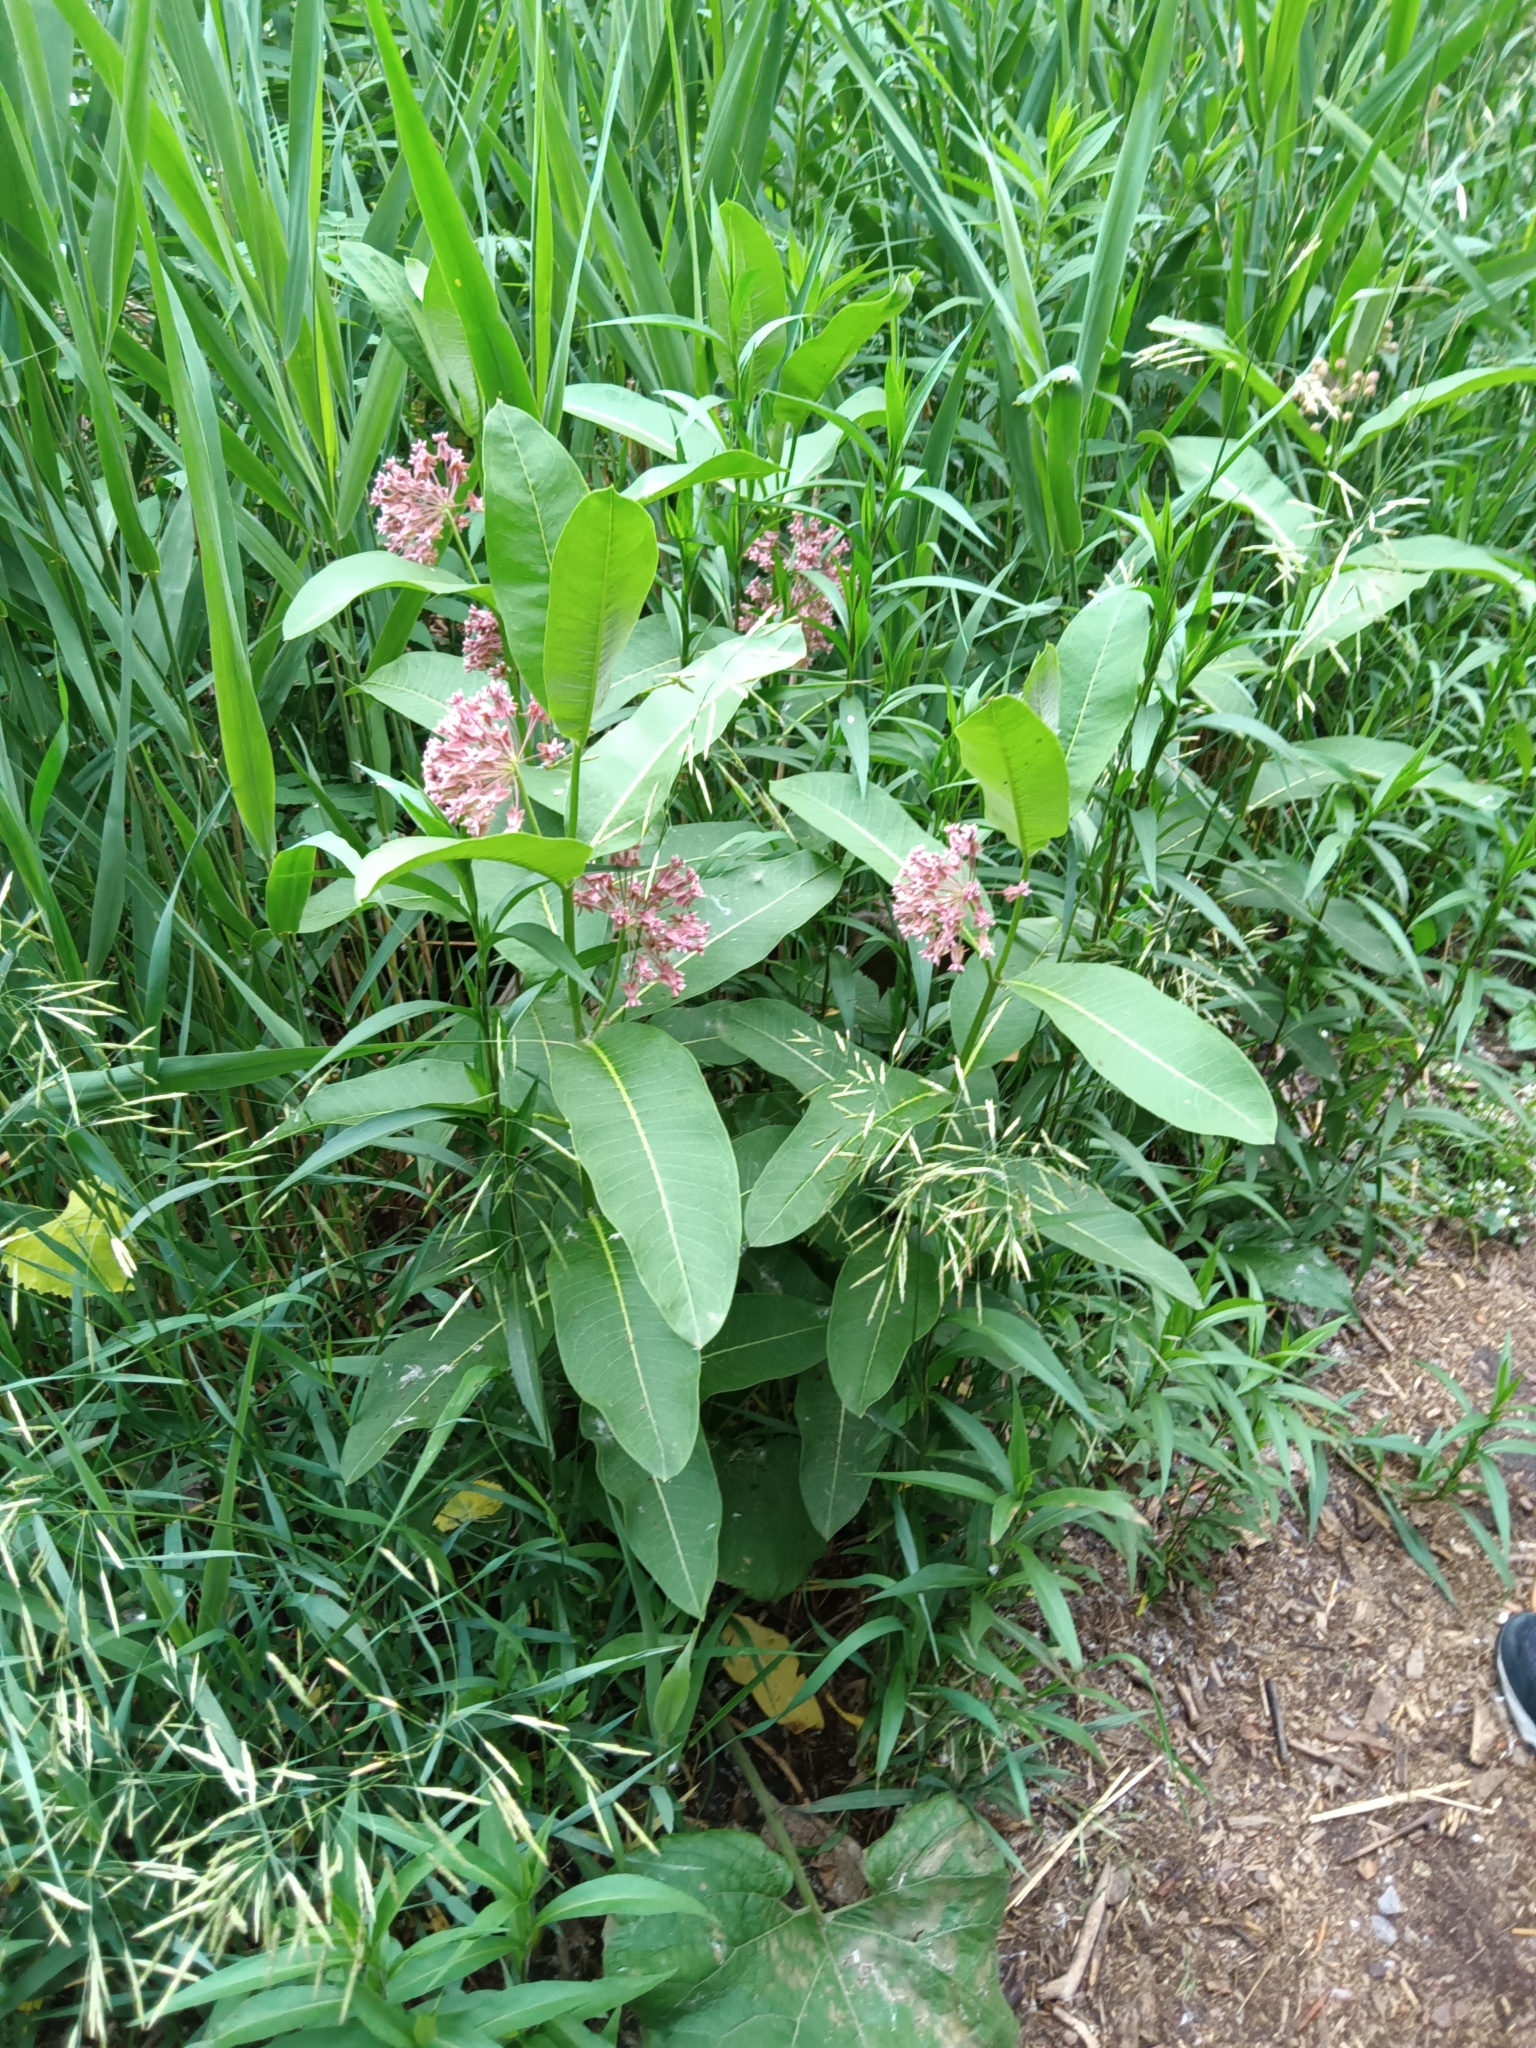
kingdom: Plantae
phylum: Tracheophyta
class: Magnoliopsida
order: Gentianales
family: Apocynaceae
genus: Asclepias
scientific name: Asclepias syriaca
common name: Common milkweed
